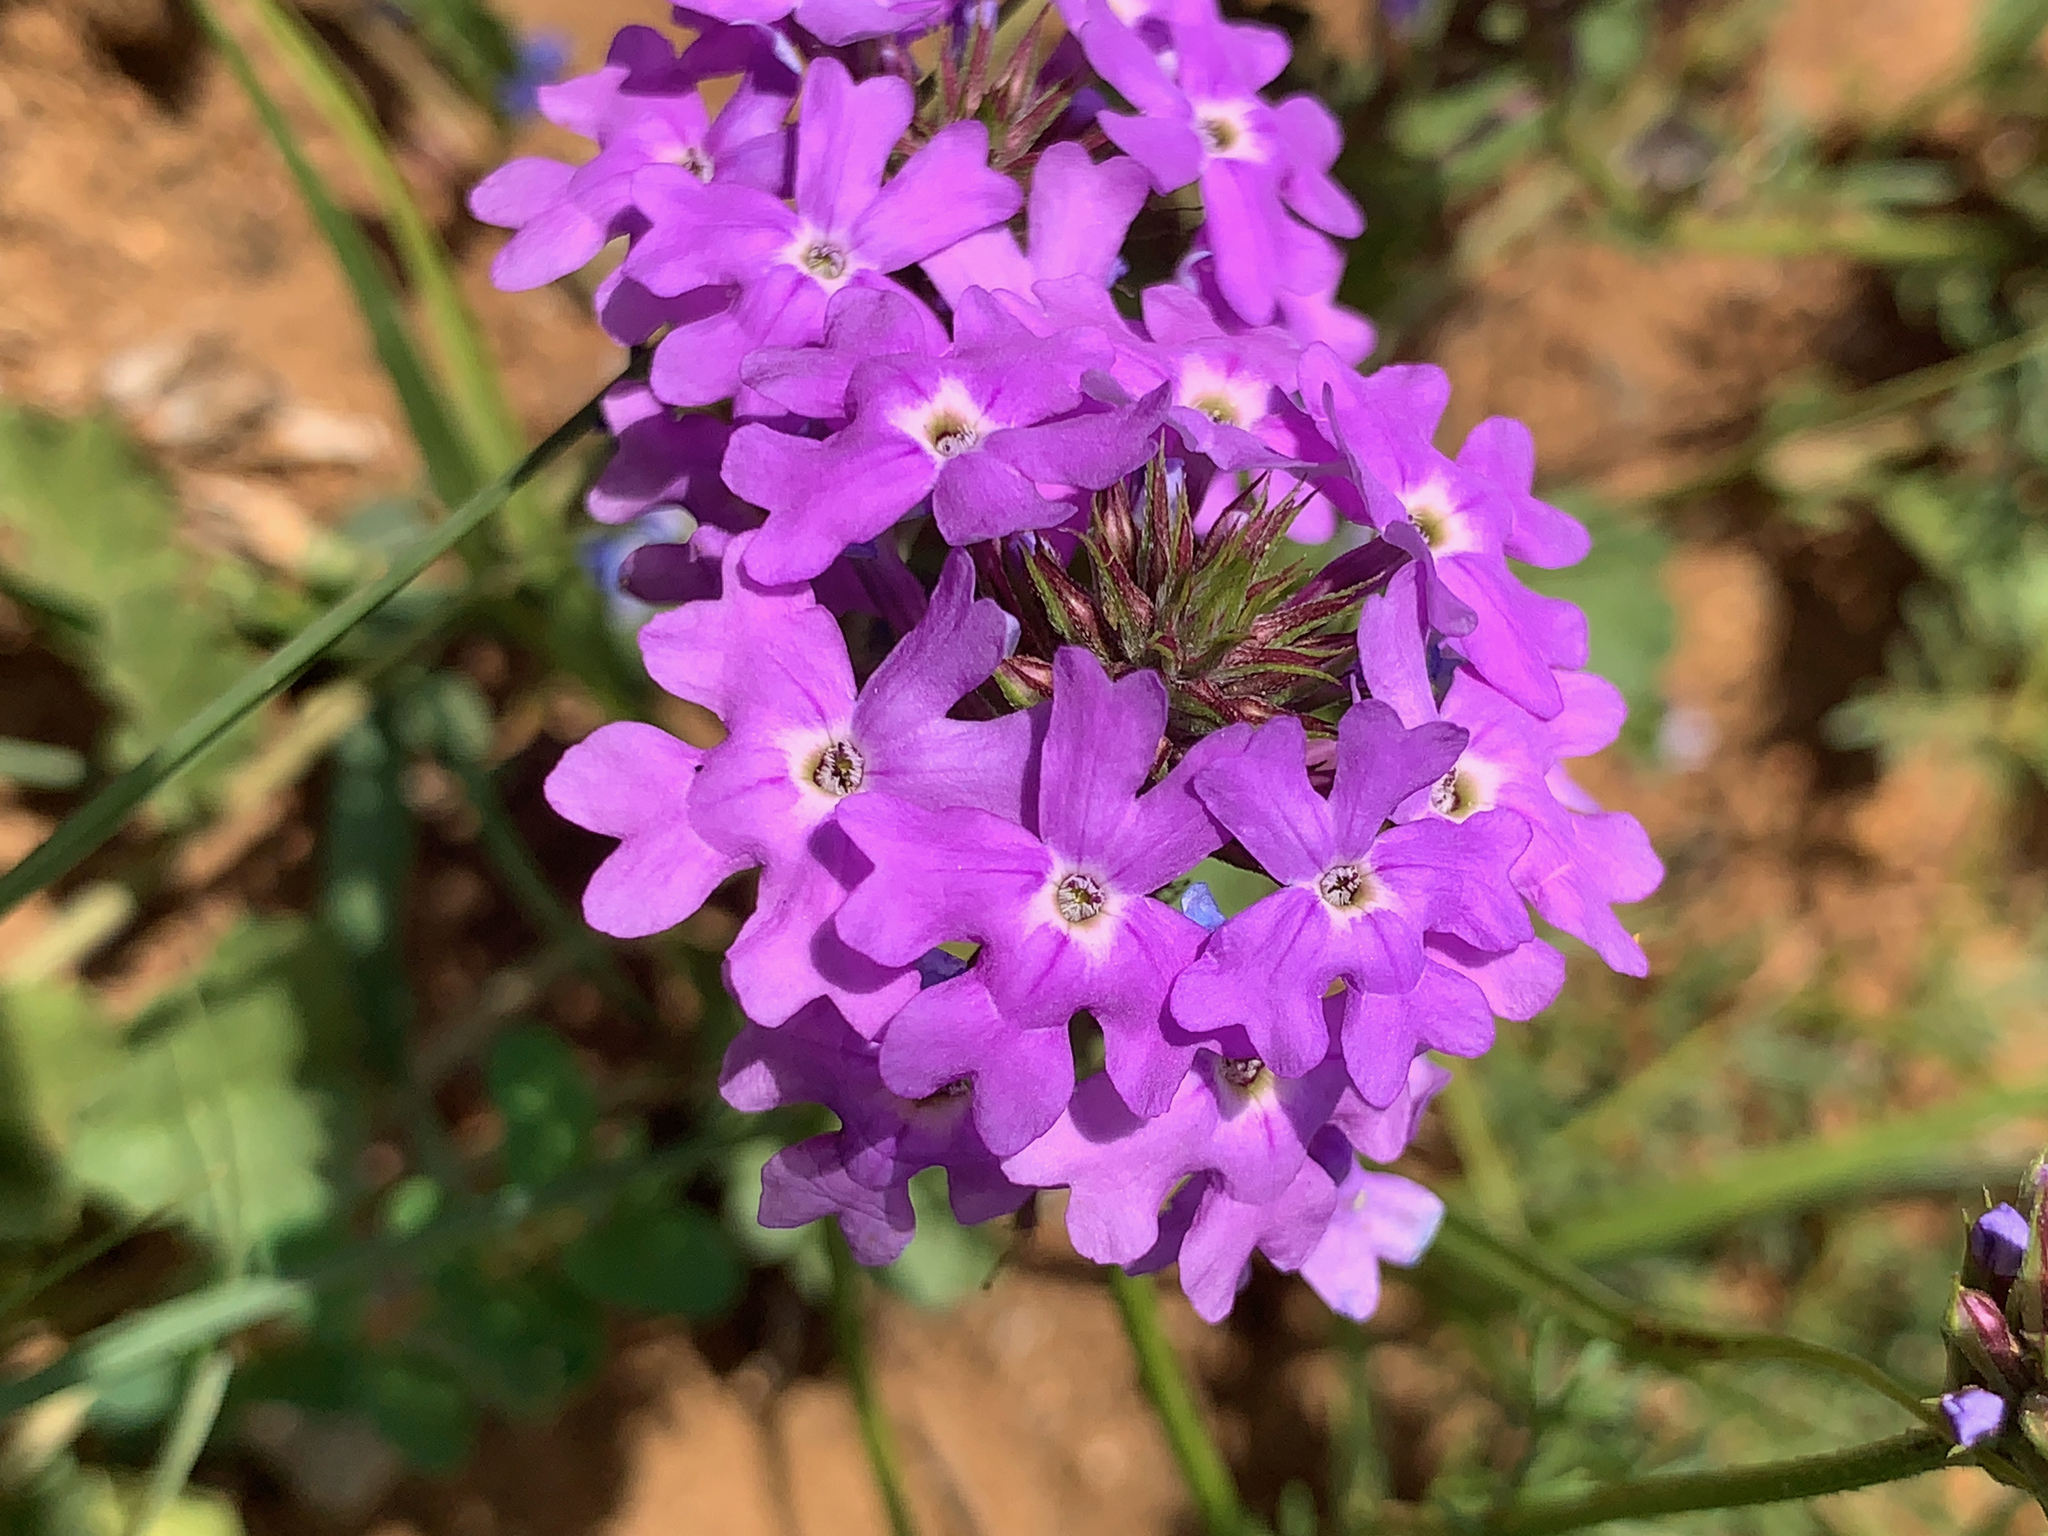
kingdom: Plantae
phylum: Tracheophyta
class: Magnoliopsida
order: Lamiales
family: Verbenaceae
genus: Verbena
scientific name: Verbena aristigera
